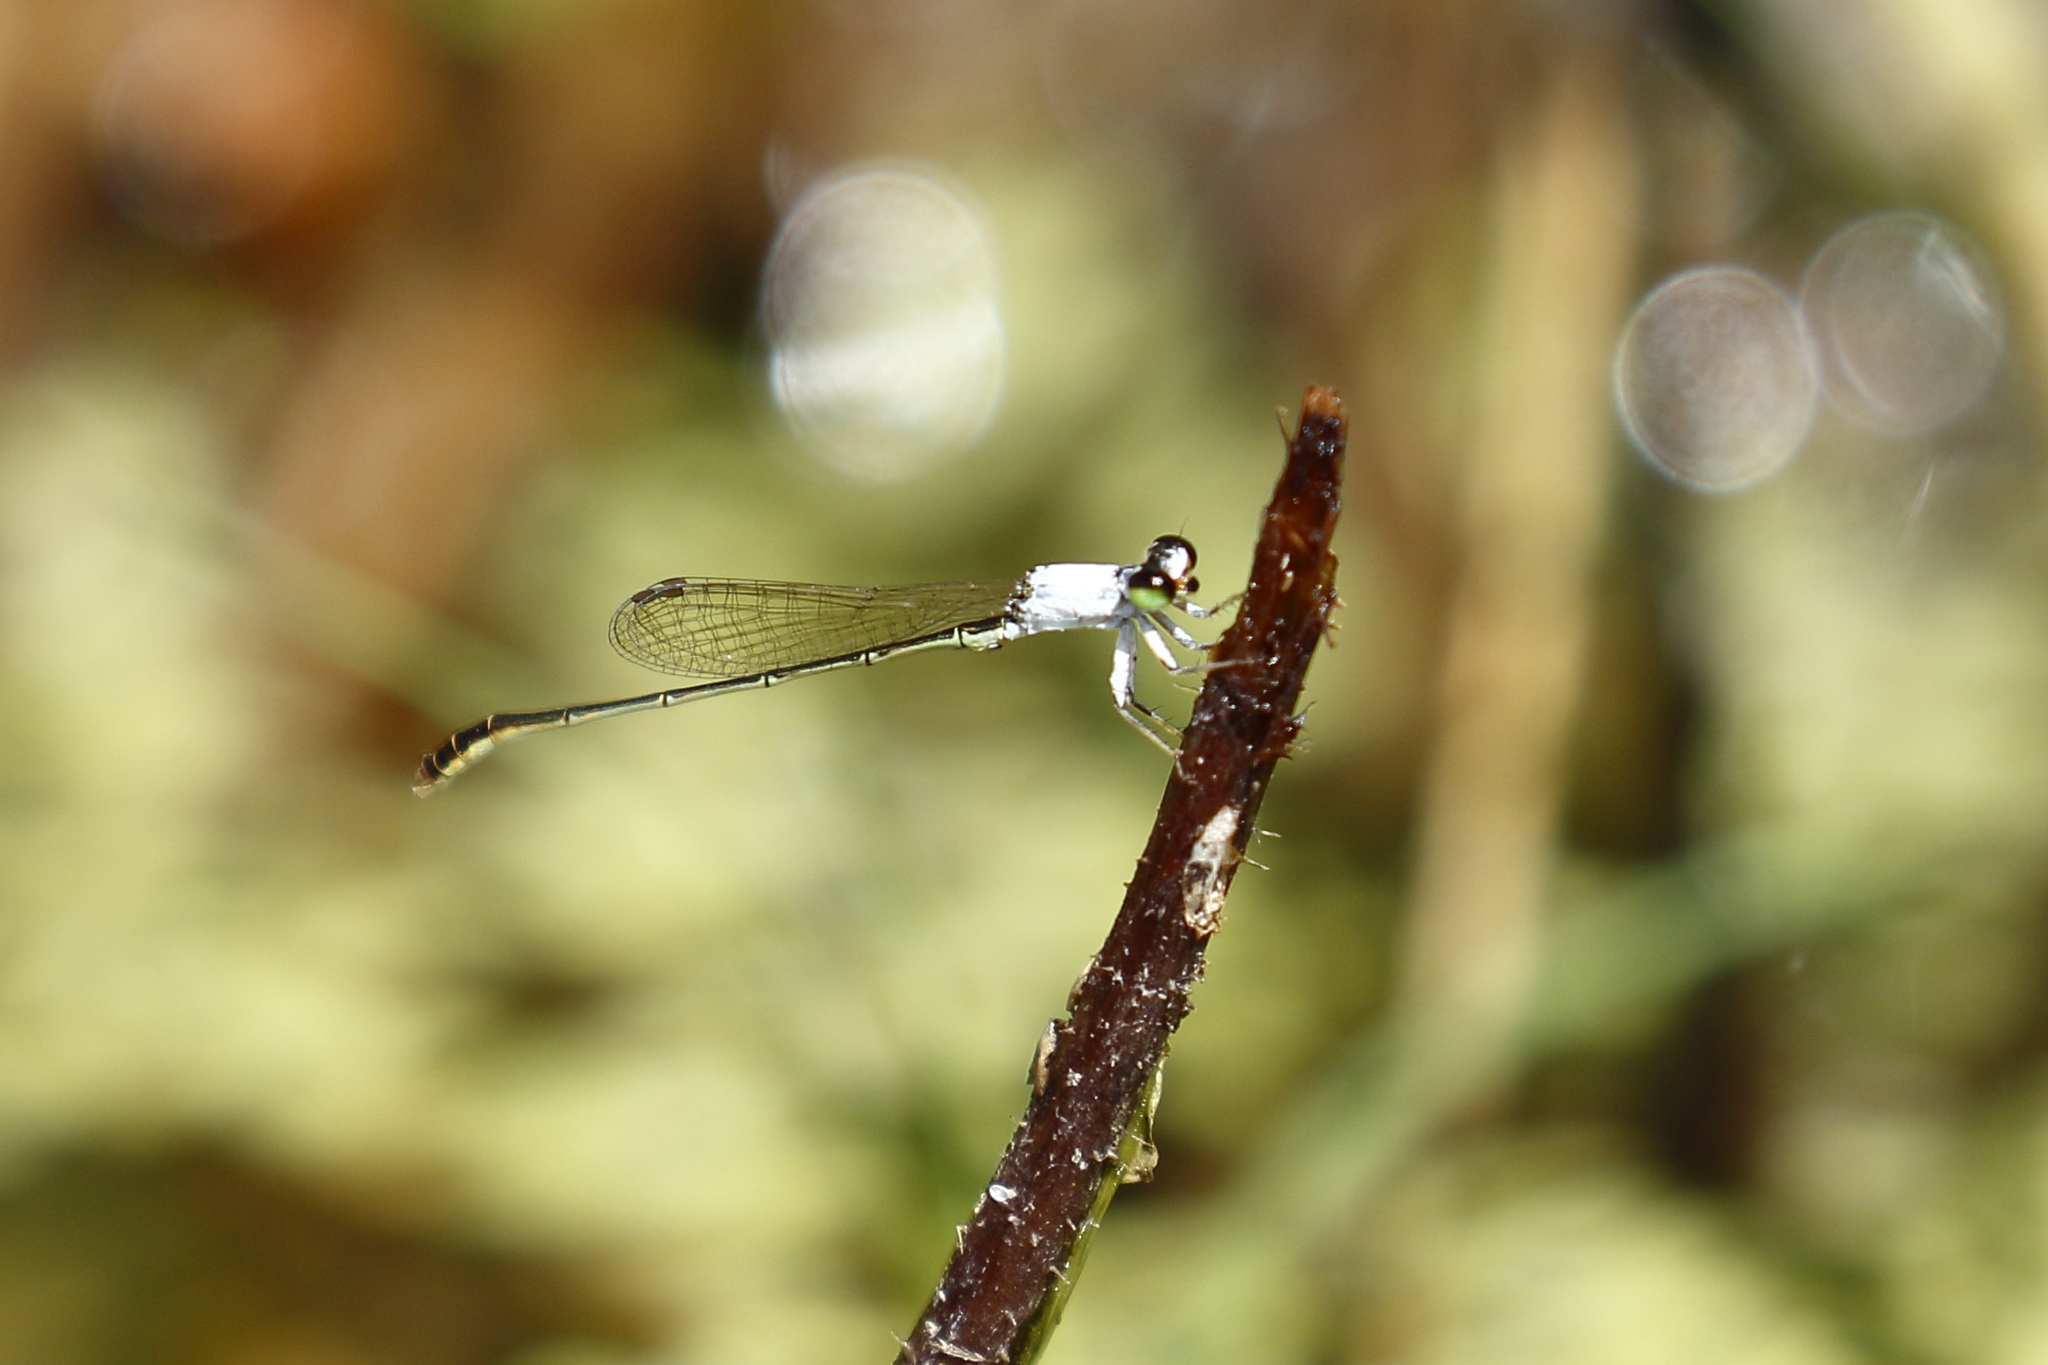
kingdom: Animalia
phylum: Arthropoda
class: Insecta
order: Odonata
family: Coenagrionidae
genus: Agriocnemis
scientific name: Agriocnemis femina
